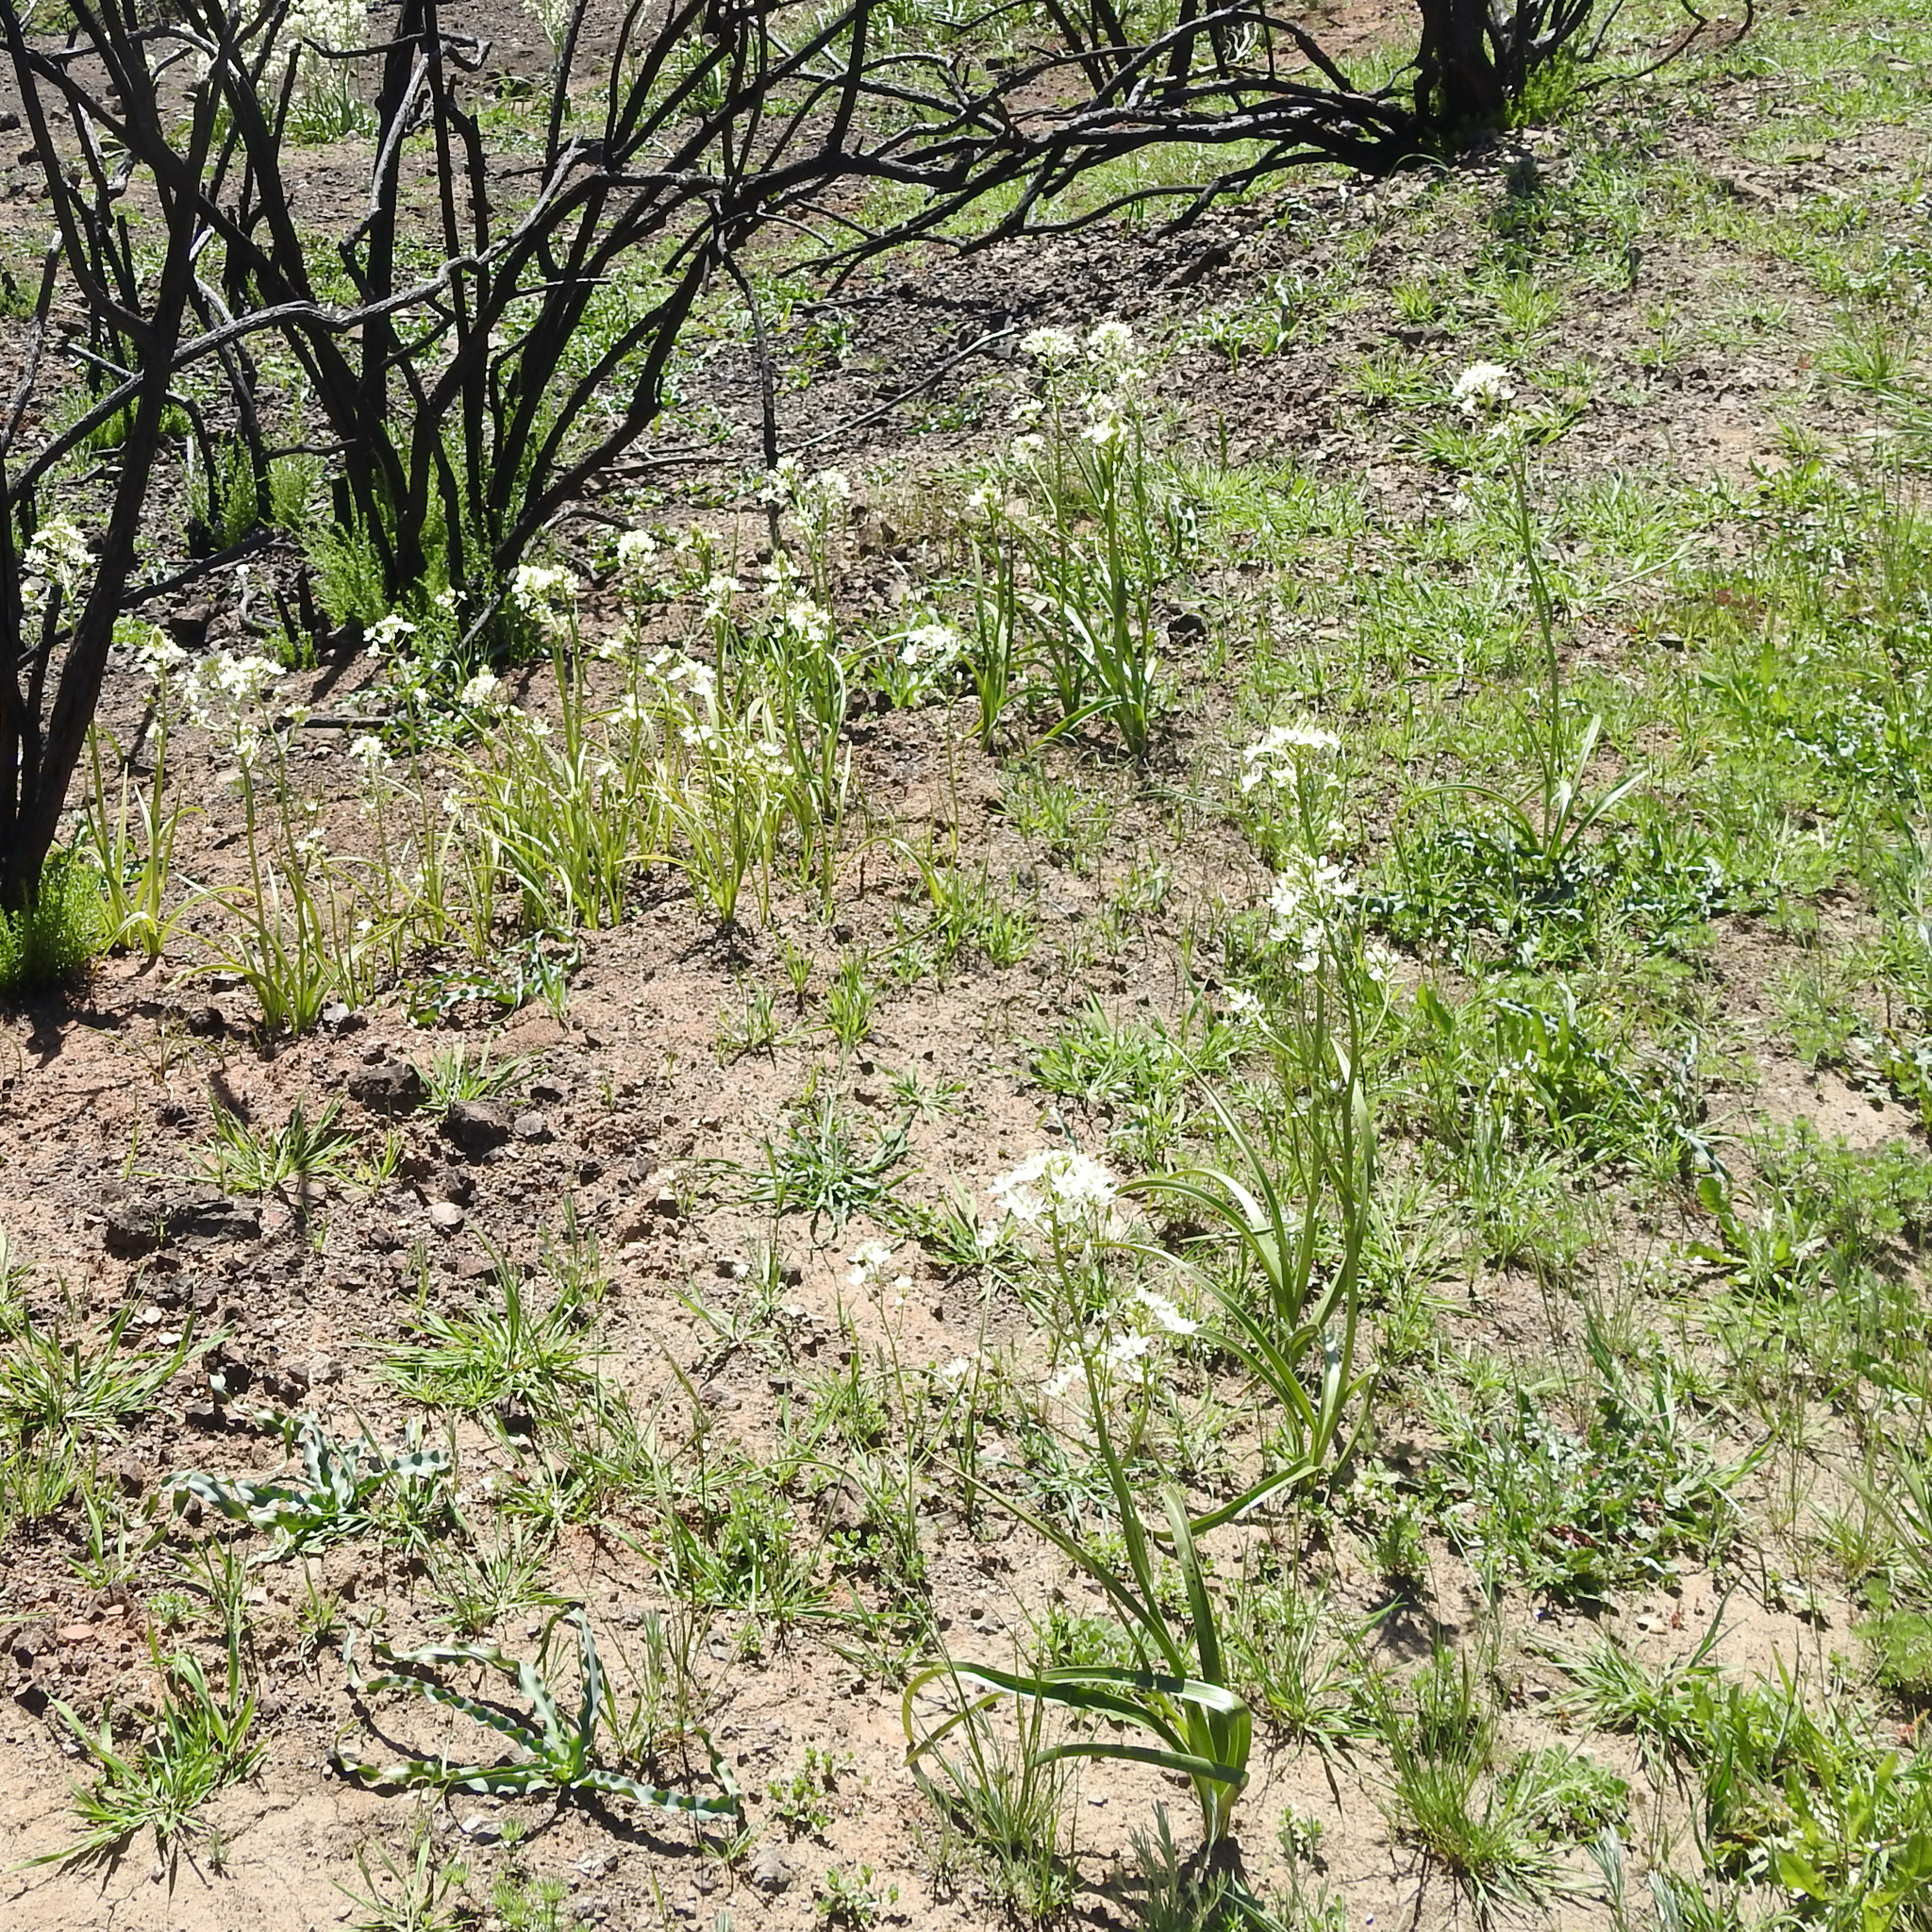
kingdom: Plantae
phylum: Tracheophyta
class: Liliopsida
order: Liliales
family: Melanthiaceae
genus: Toxicoscordion
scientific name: Toxicoscordion fremontii
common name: Fremont's death camas
